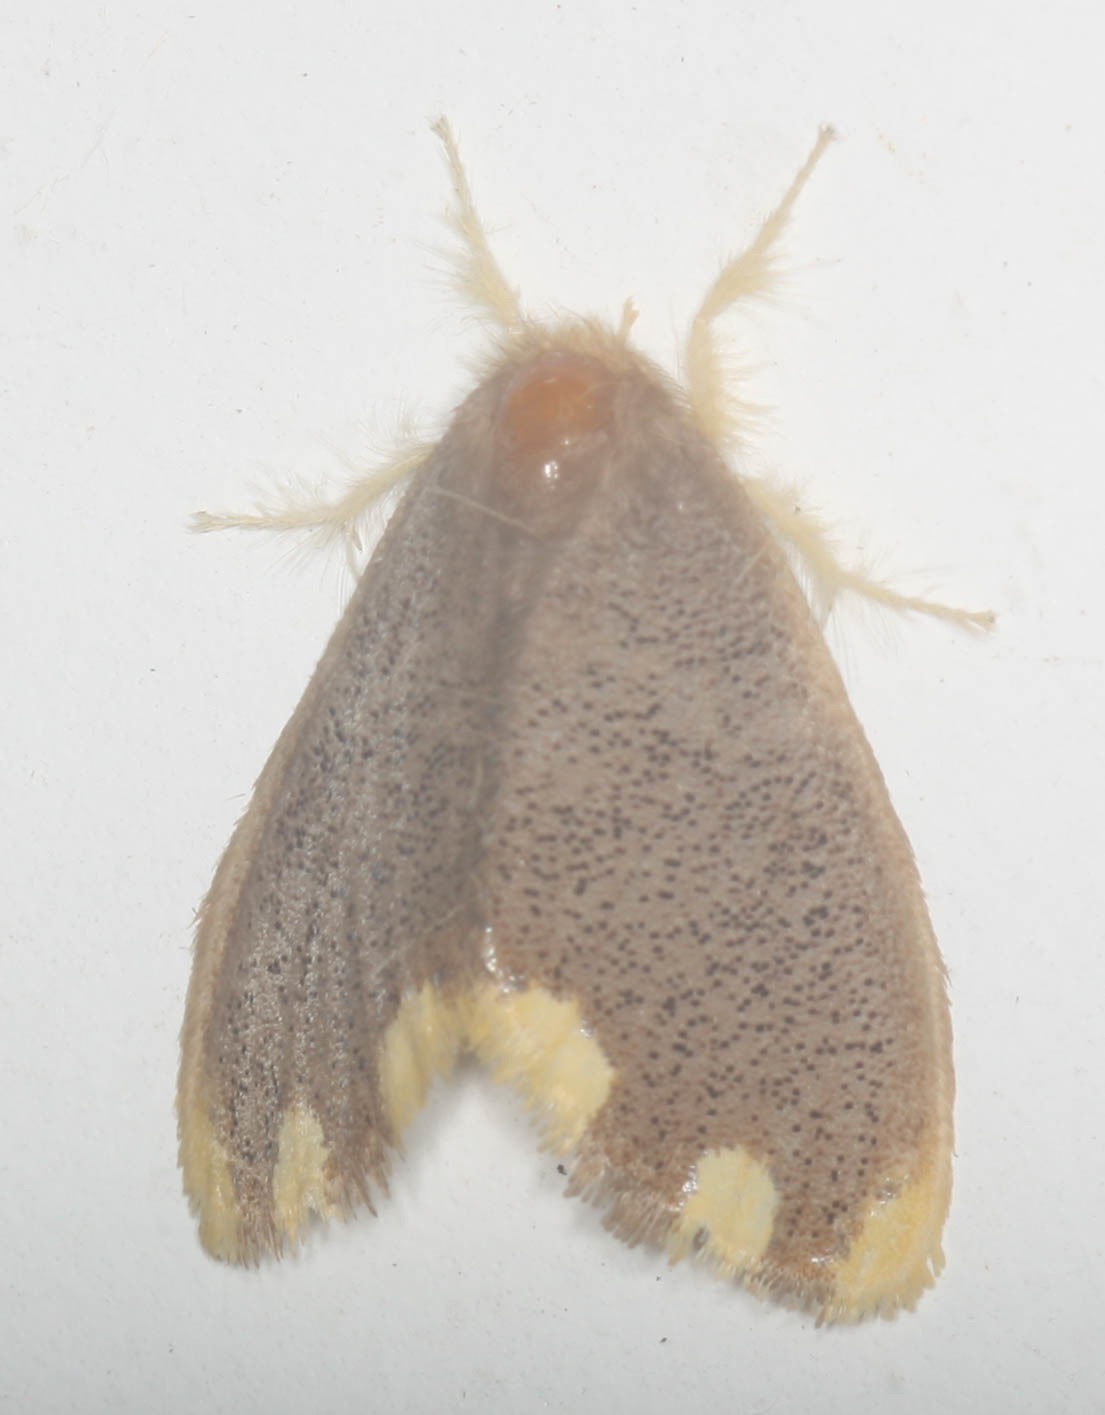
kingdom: Animalia
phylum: Arthropoda
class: Insecta
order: Lepidoptera
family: Erebidae
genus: Orvasca
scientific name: Orvasca subnotata
